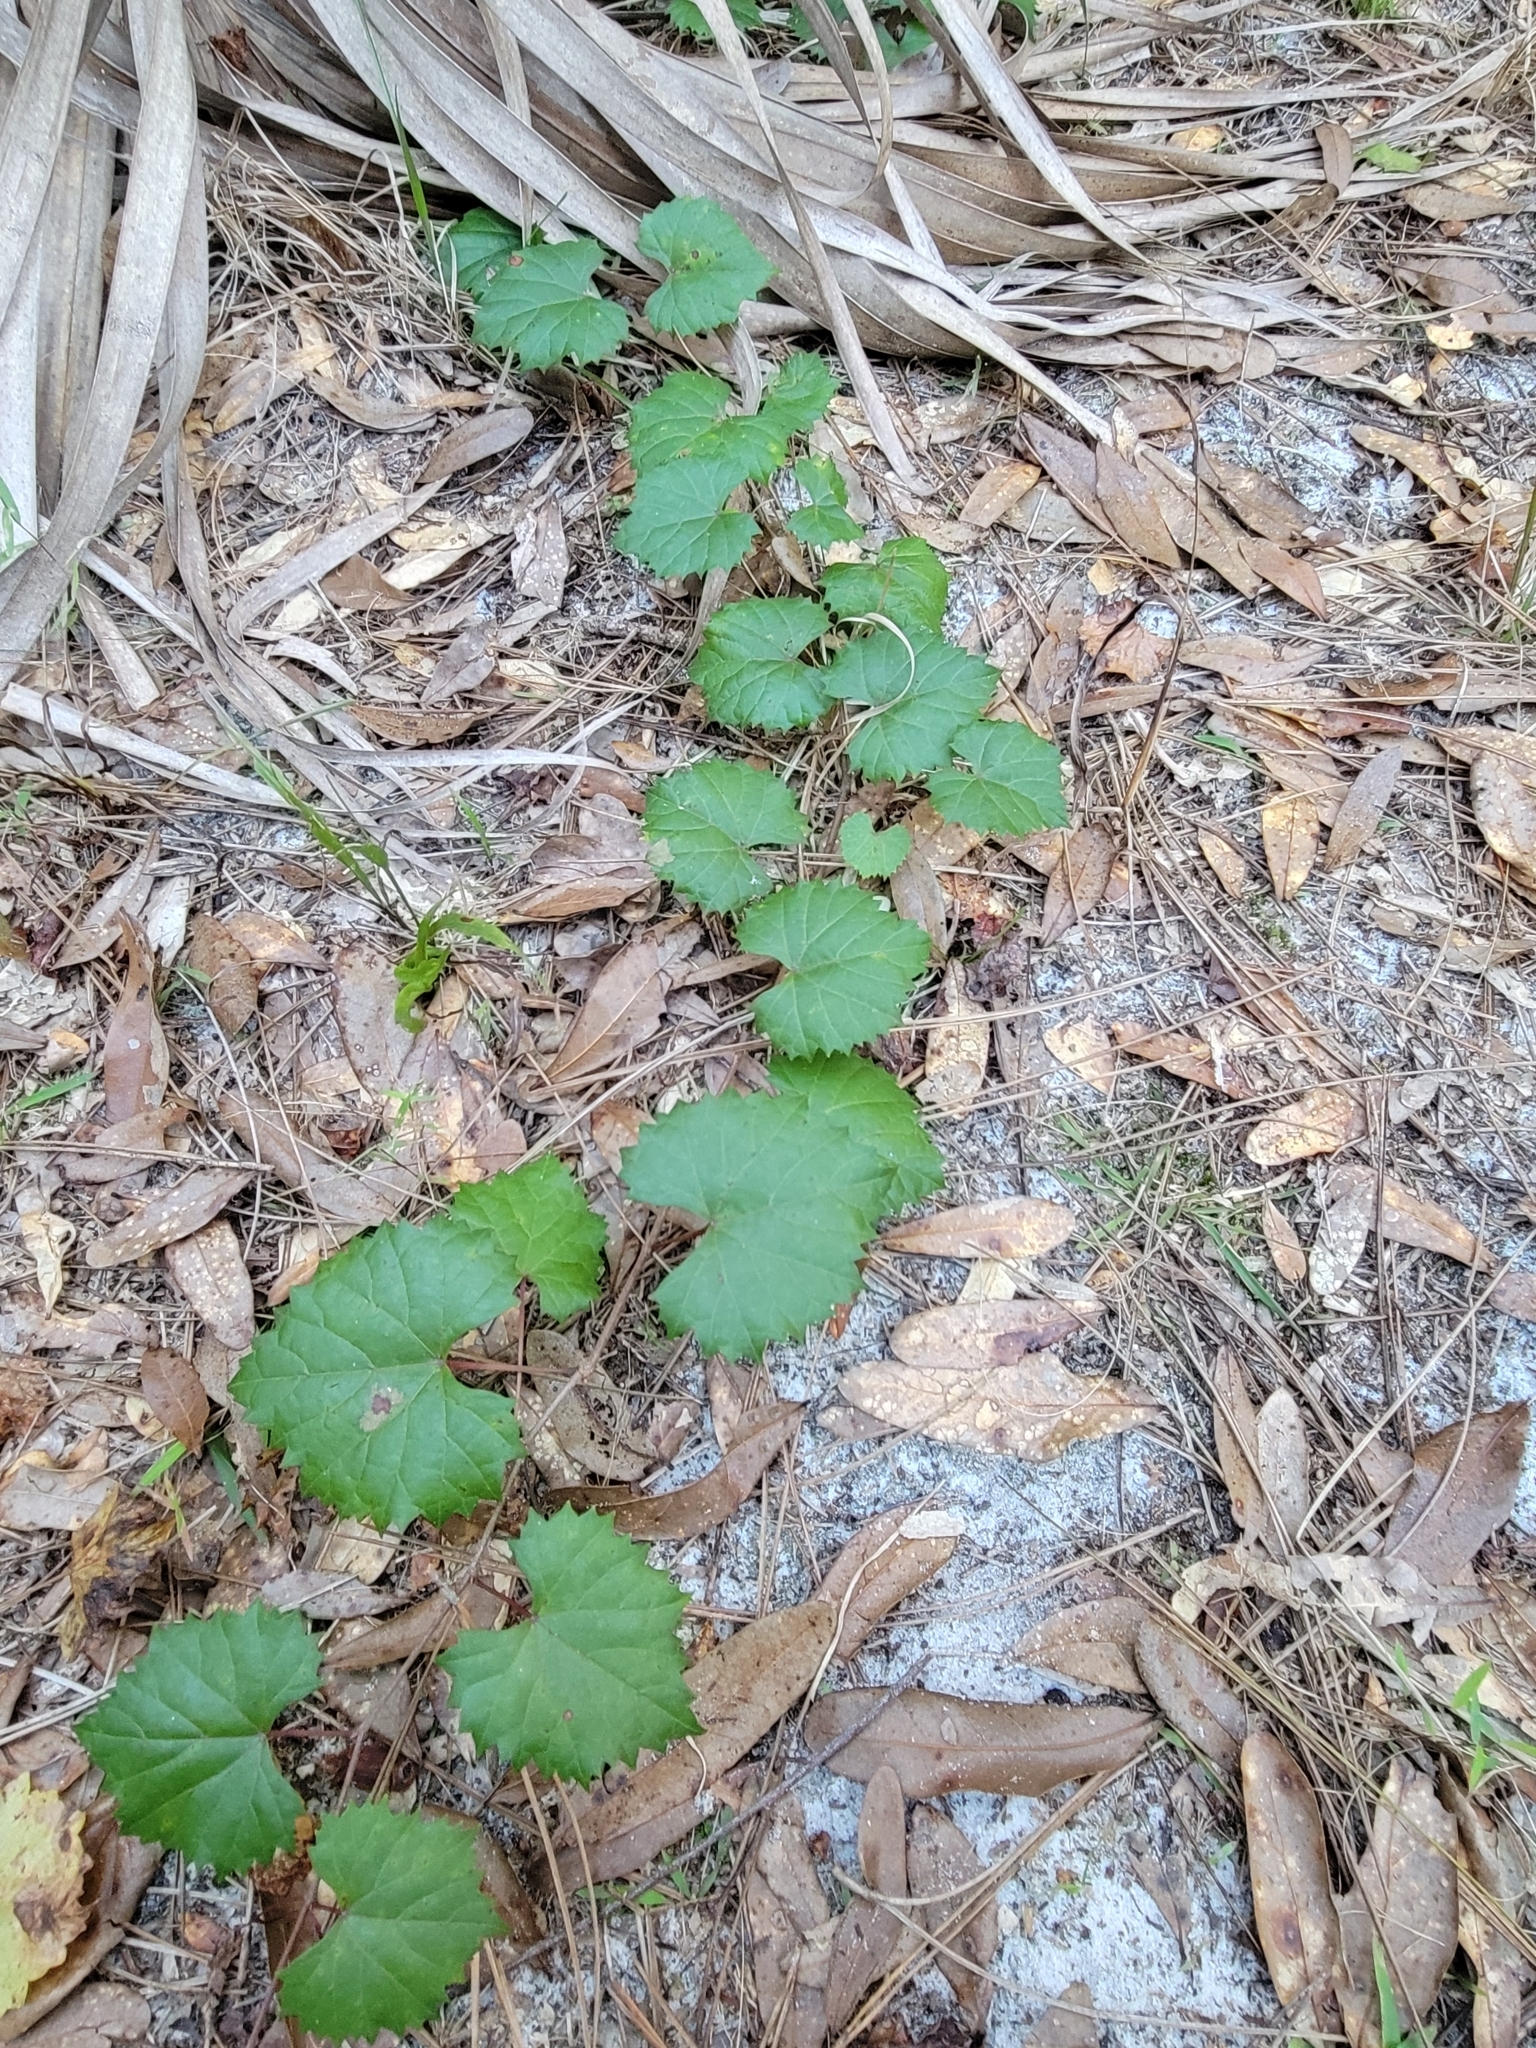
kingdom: Plantae
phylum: Tracheophyta
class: Magnoliopsida
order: Vitales
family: Vitaceae
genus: Vitis
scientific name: Vitis rotundifolia
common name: Muscadine grape
